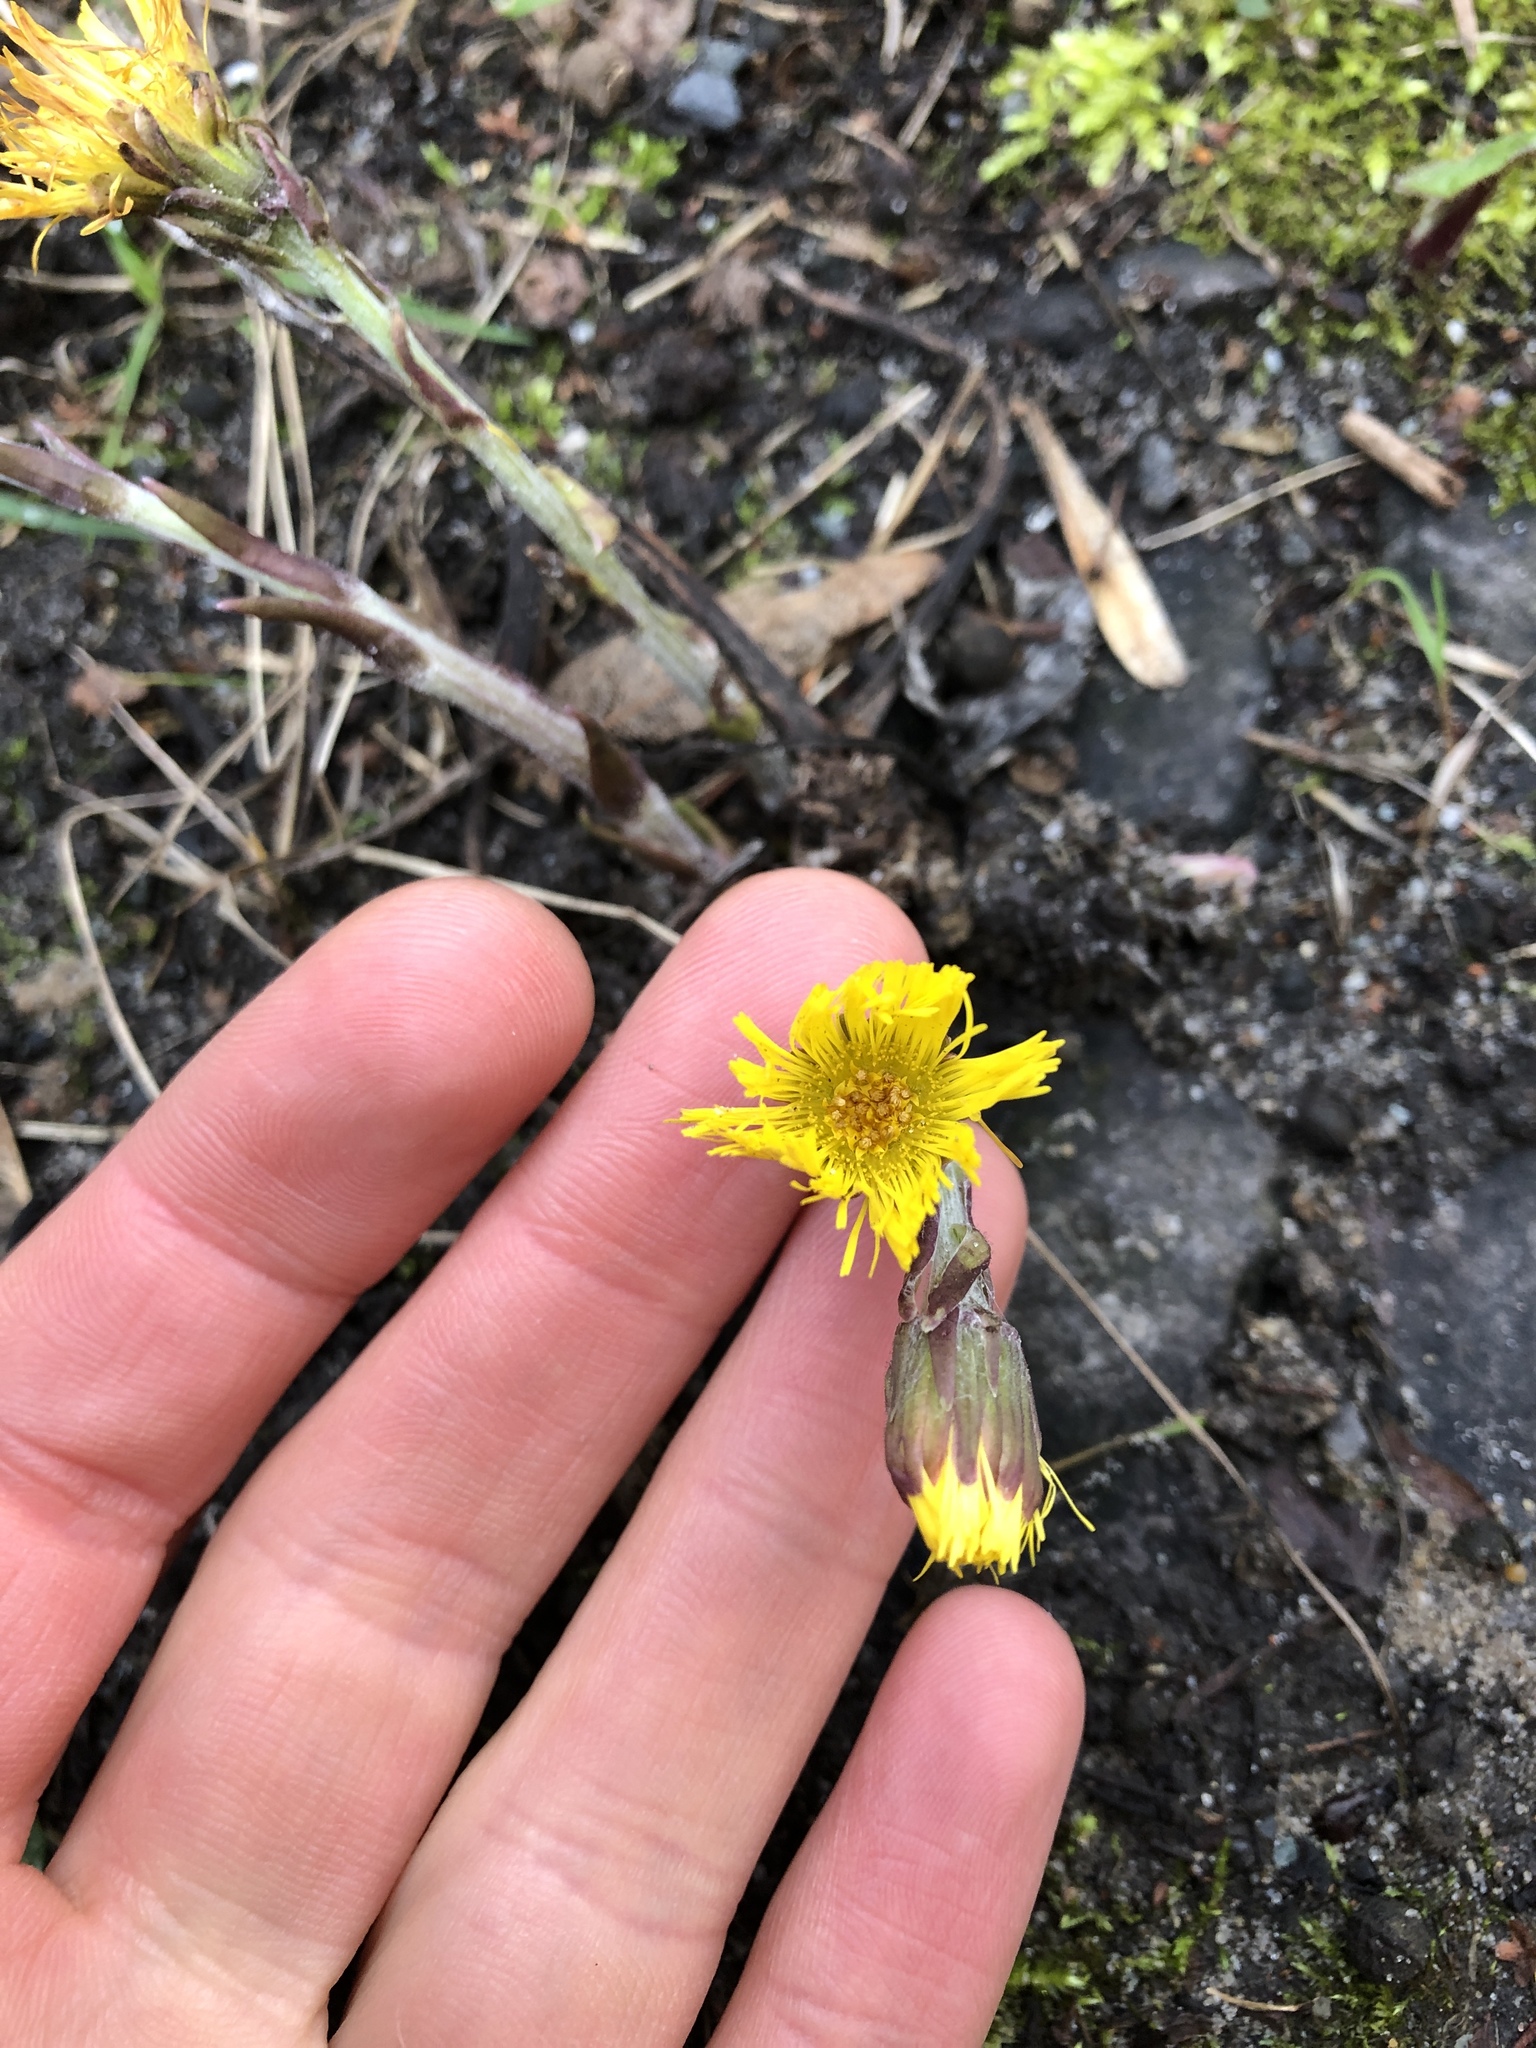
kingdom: Plantae
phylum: Tracheophyta
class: Magnoliopsida
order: Asterales
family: Asteraceae
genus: Tussilago
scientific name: Tussilago farfara
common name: Coltsfoot
